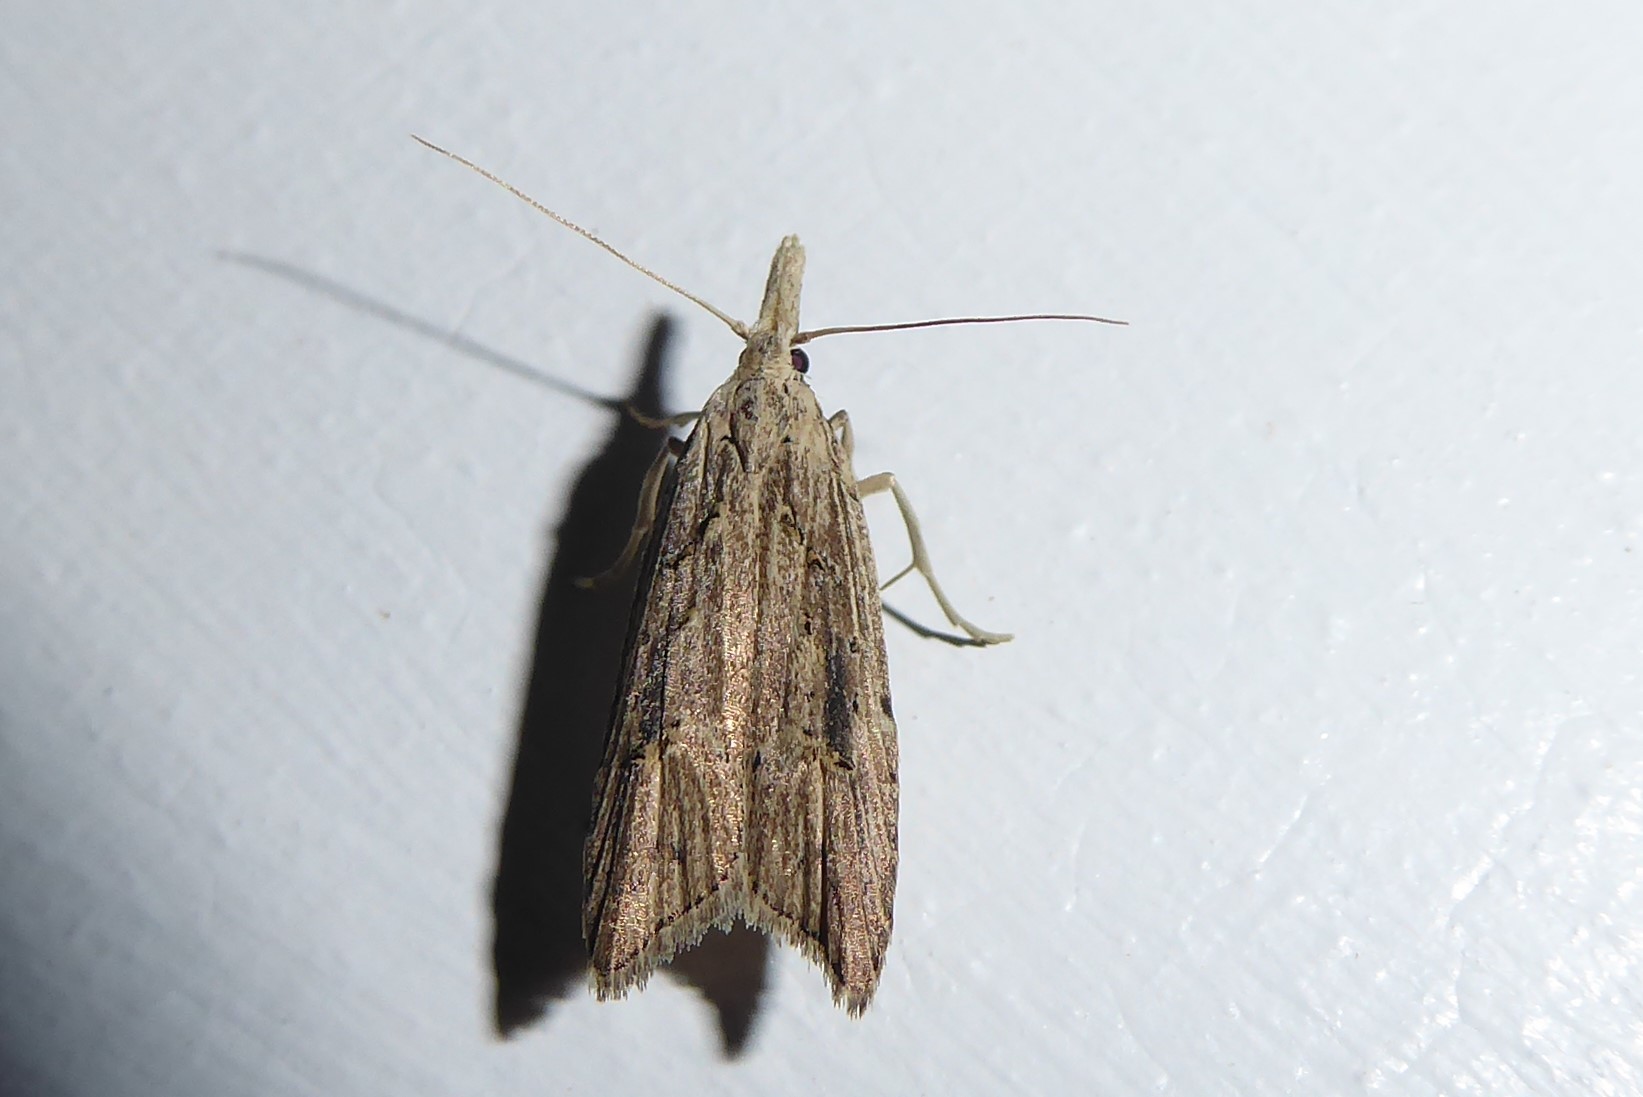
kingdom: Animalia
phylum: Arthropoda
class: Insecta
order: Lepidoptera
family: Carposinidae
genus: Carposina
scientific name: Carposina Heterocrossa exochana
